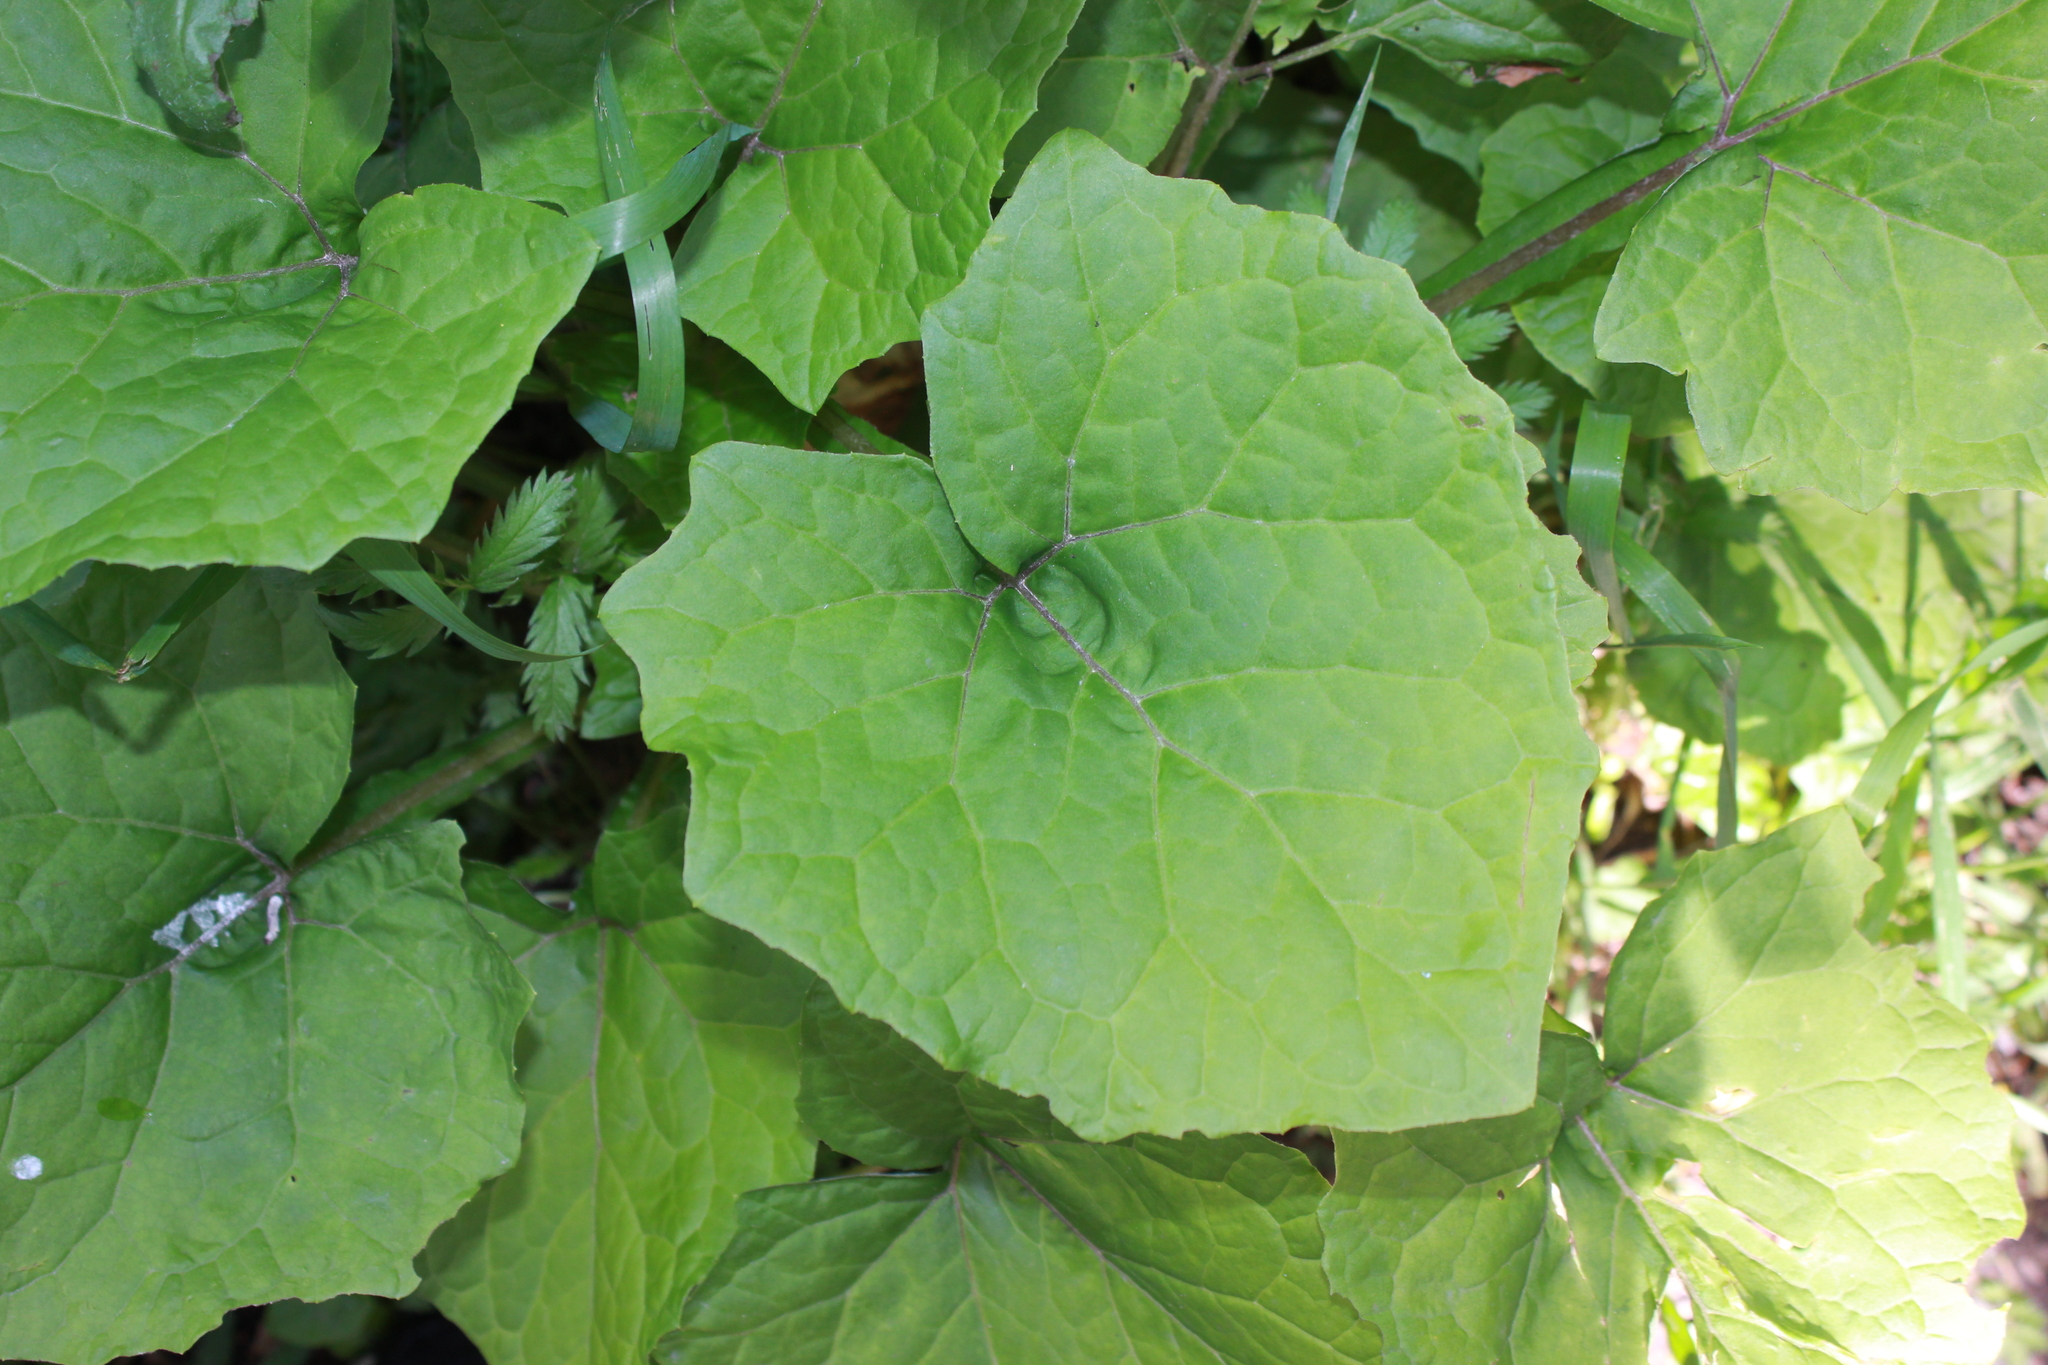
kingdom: Plantae
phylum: Tracheophyta
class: Magnoliopsida
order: Asterales
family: Asteraceae
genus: Tussilago
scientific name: Tussilago farfara
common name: Coltsfoot
